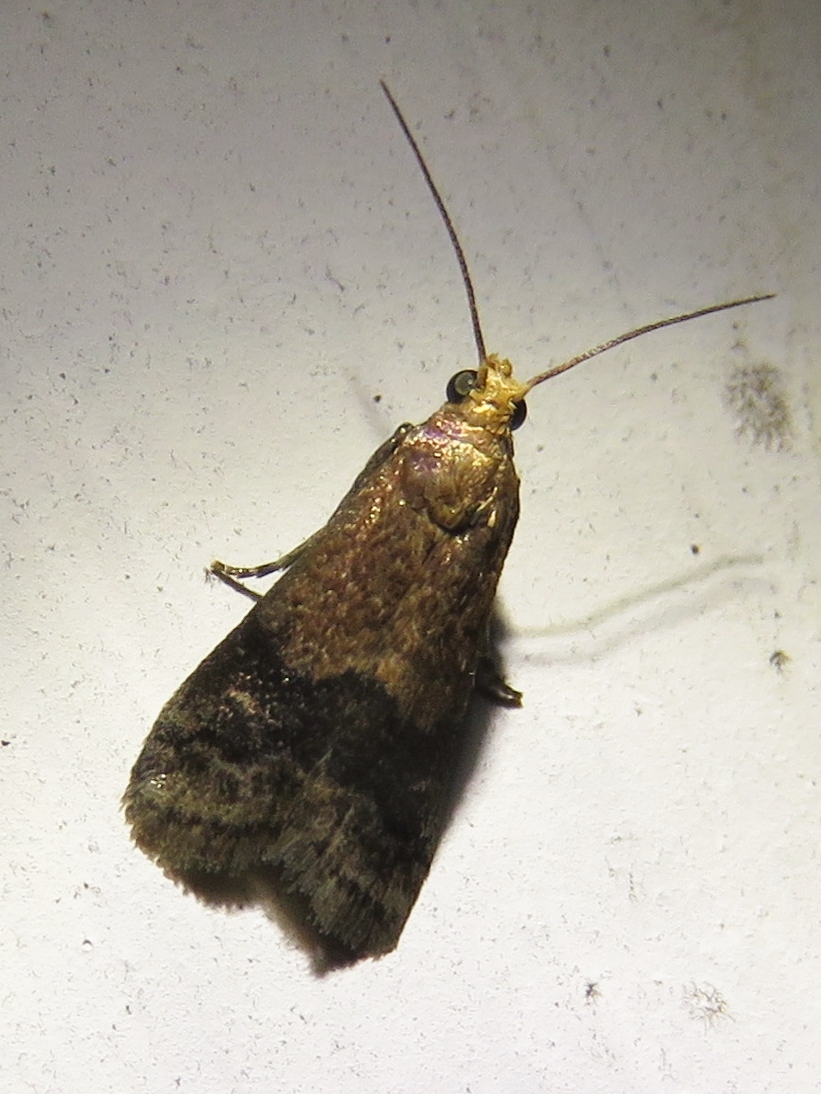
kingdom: Animalia
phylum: Arthropoda
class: Insecta
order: Lepidoptera
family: Pyralidae
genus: Eulogia
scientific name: Eulogia ochrifrontella
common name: Broad-banded eulogia moth
